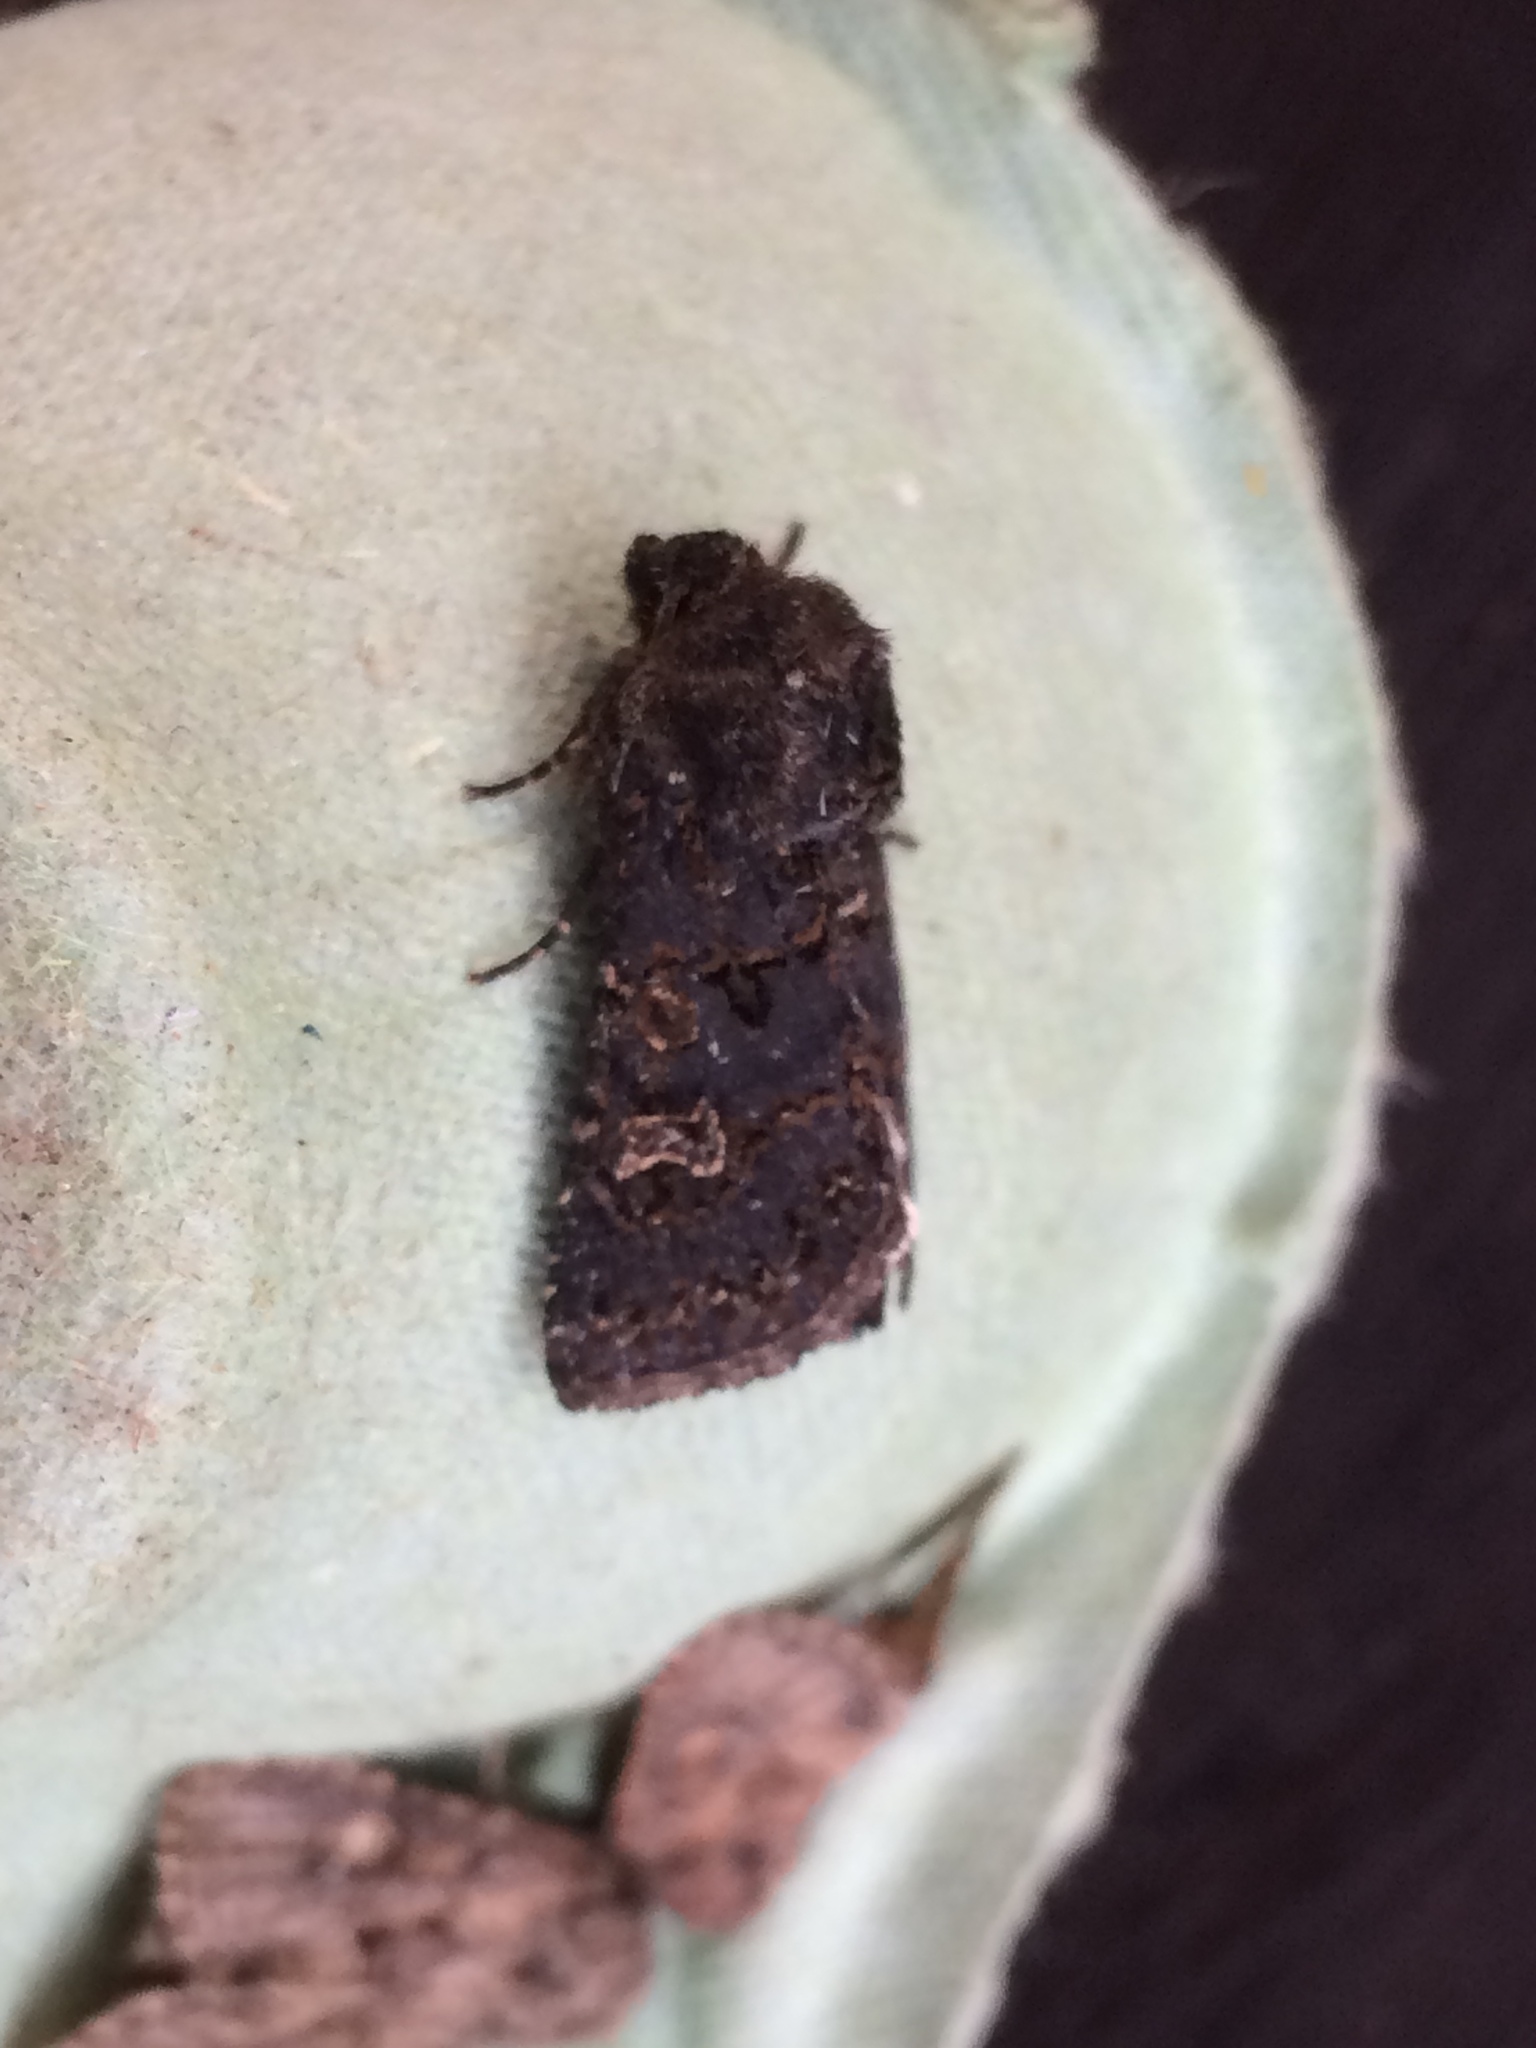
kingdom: Animalia
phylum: Arthropoda
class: Insecta
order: Lepidoptera
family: Noctuidae
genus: Tholera
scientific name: Tholera cespitis
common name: Hedge rustic
